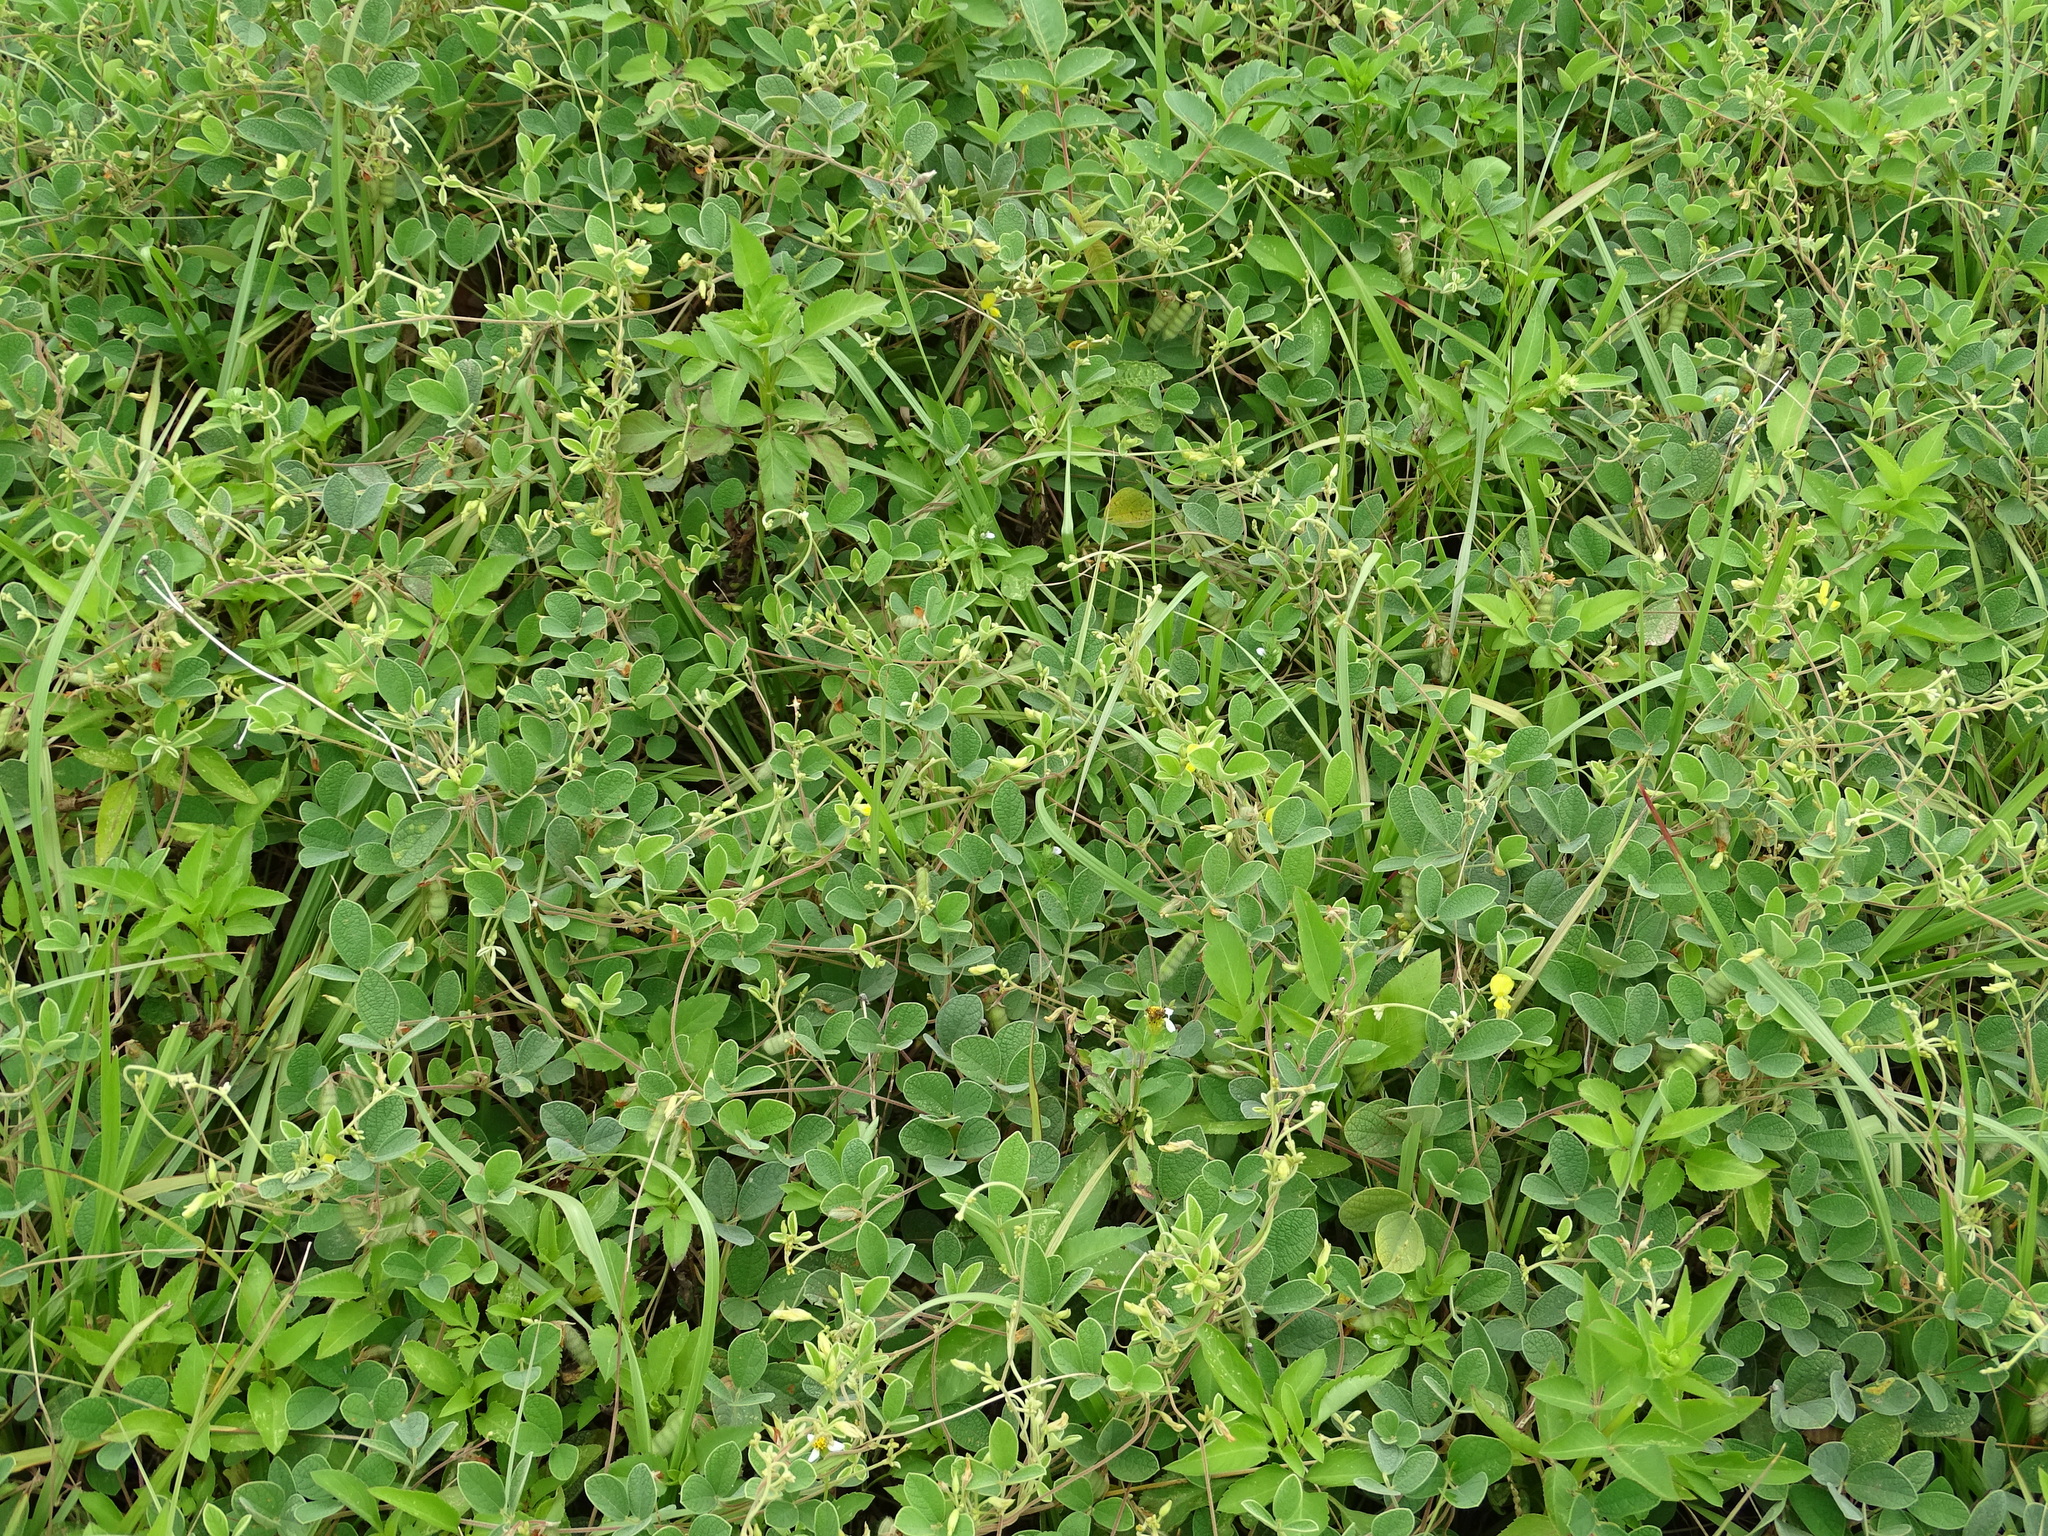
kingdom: Plantae
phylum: Tracheophyta
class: Magnoliopsida
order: Fabales
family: Fabaceae
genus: Cajanus
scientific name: Cajanus scarabaeoides
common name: Showy pigeonpea
